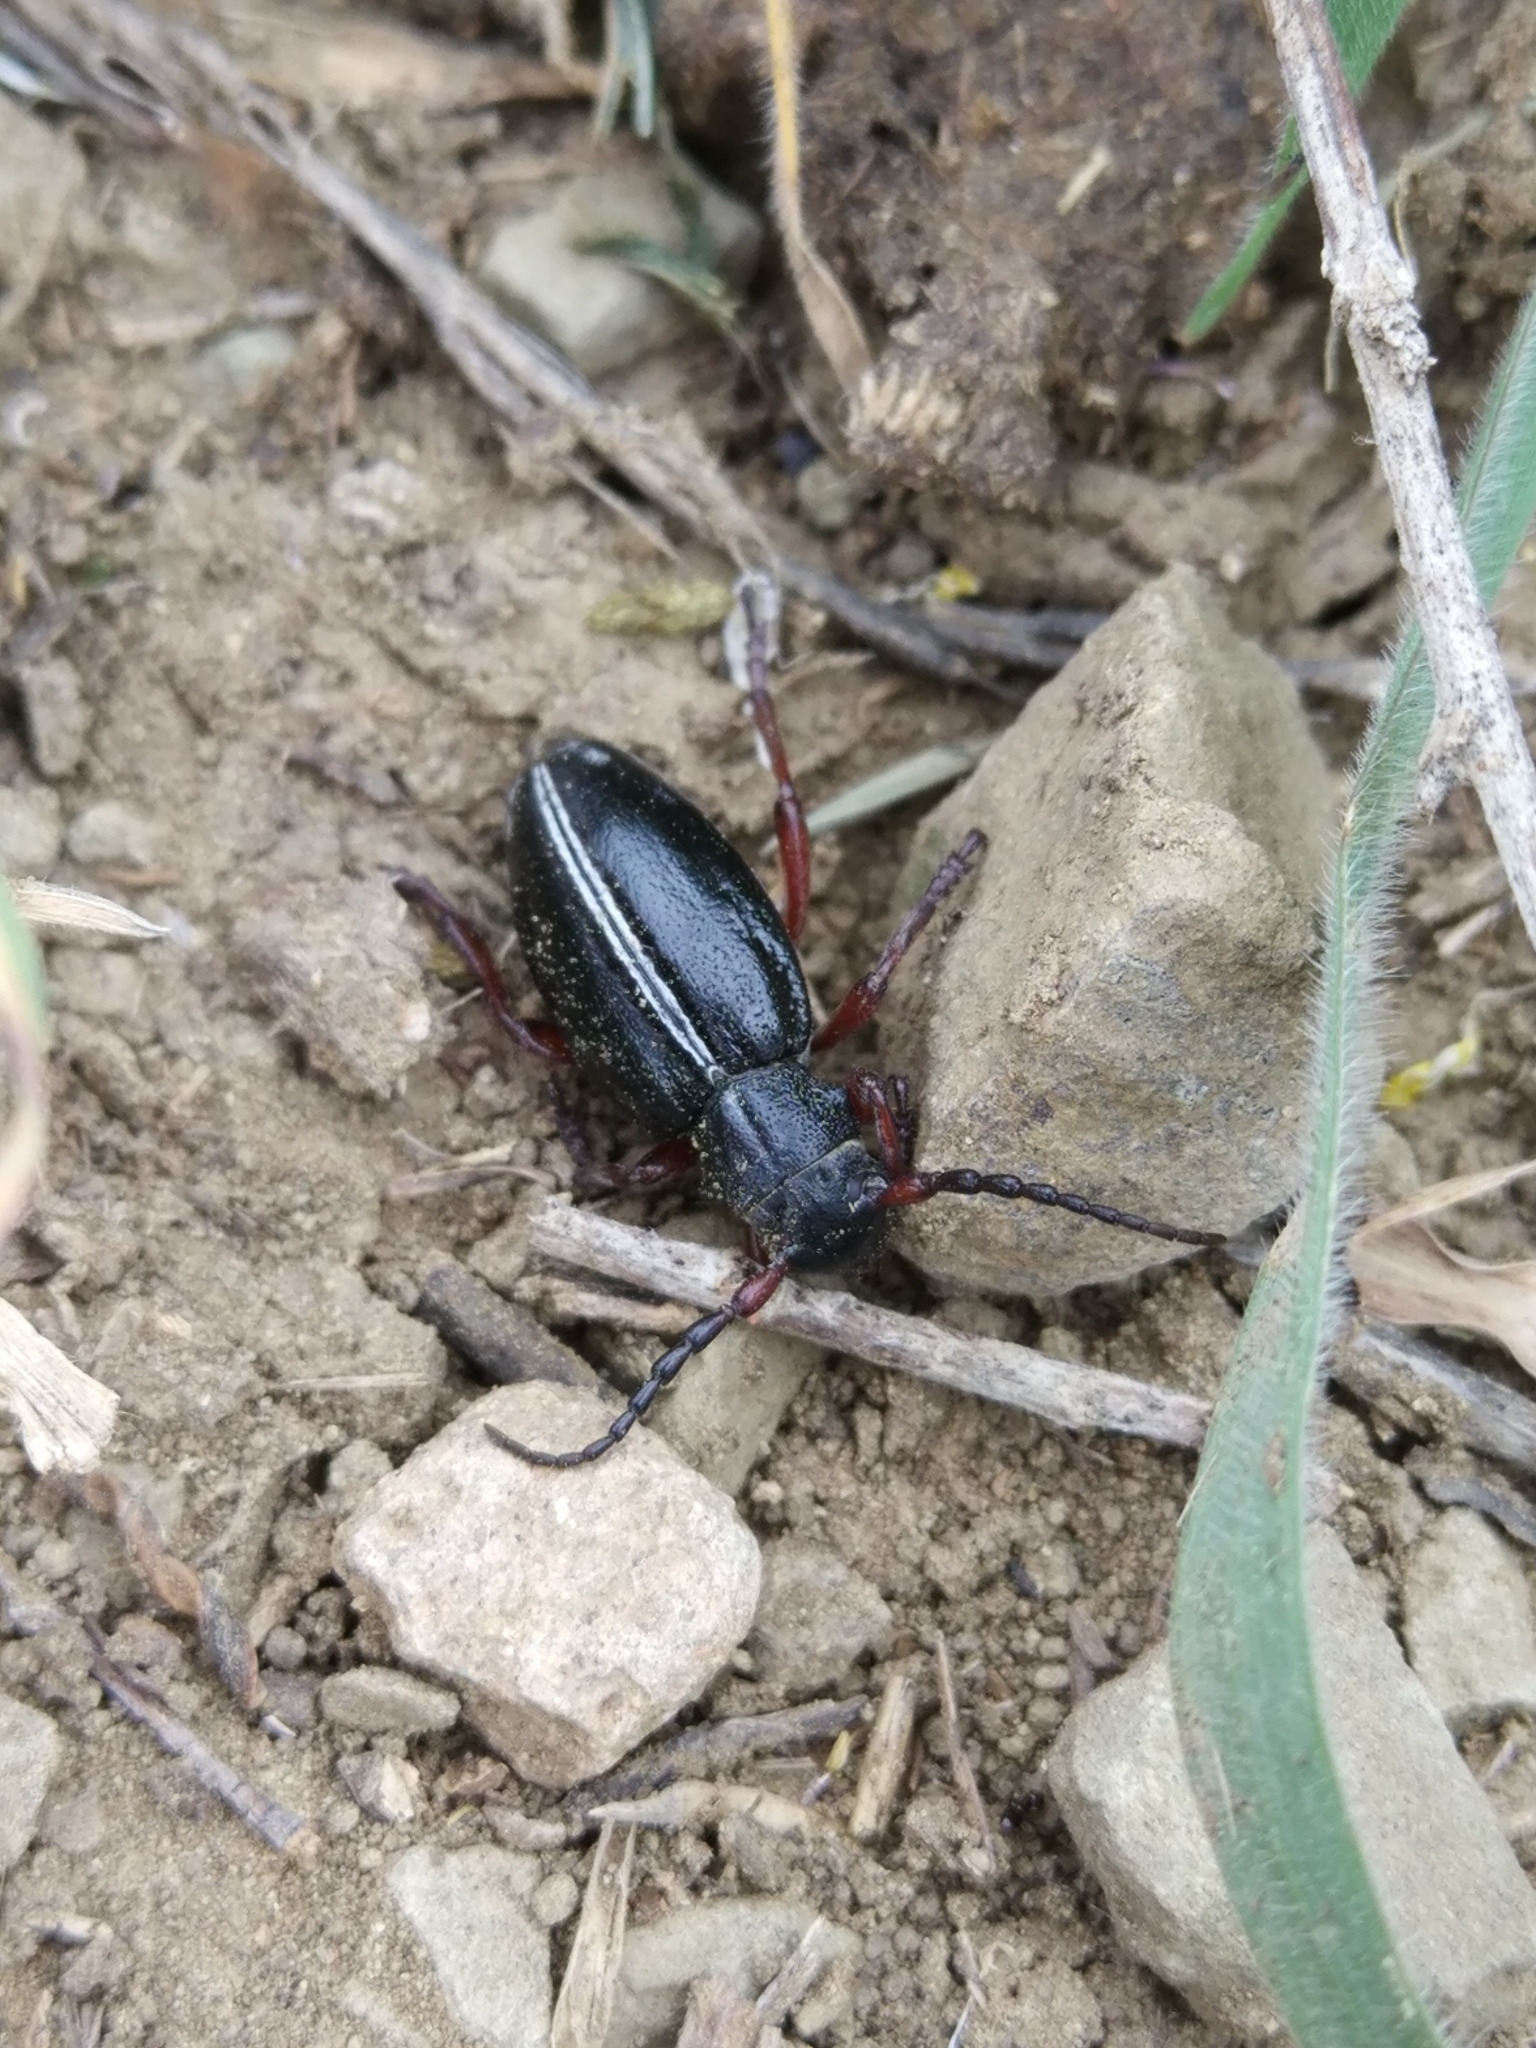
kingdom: Animalia
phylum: Arthropoda
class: Insecta
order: Coleoptera
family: Cerambycidae
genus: Dorcadion
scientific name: Dorcadion sulcipenne
